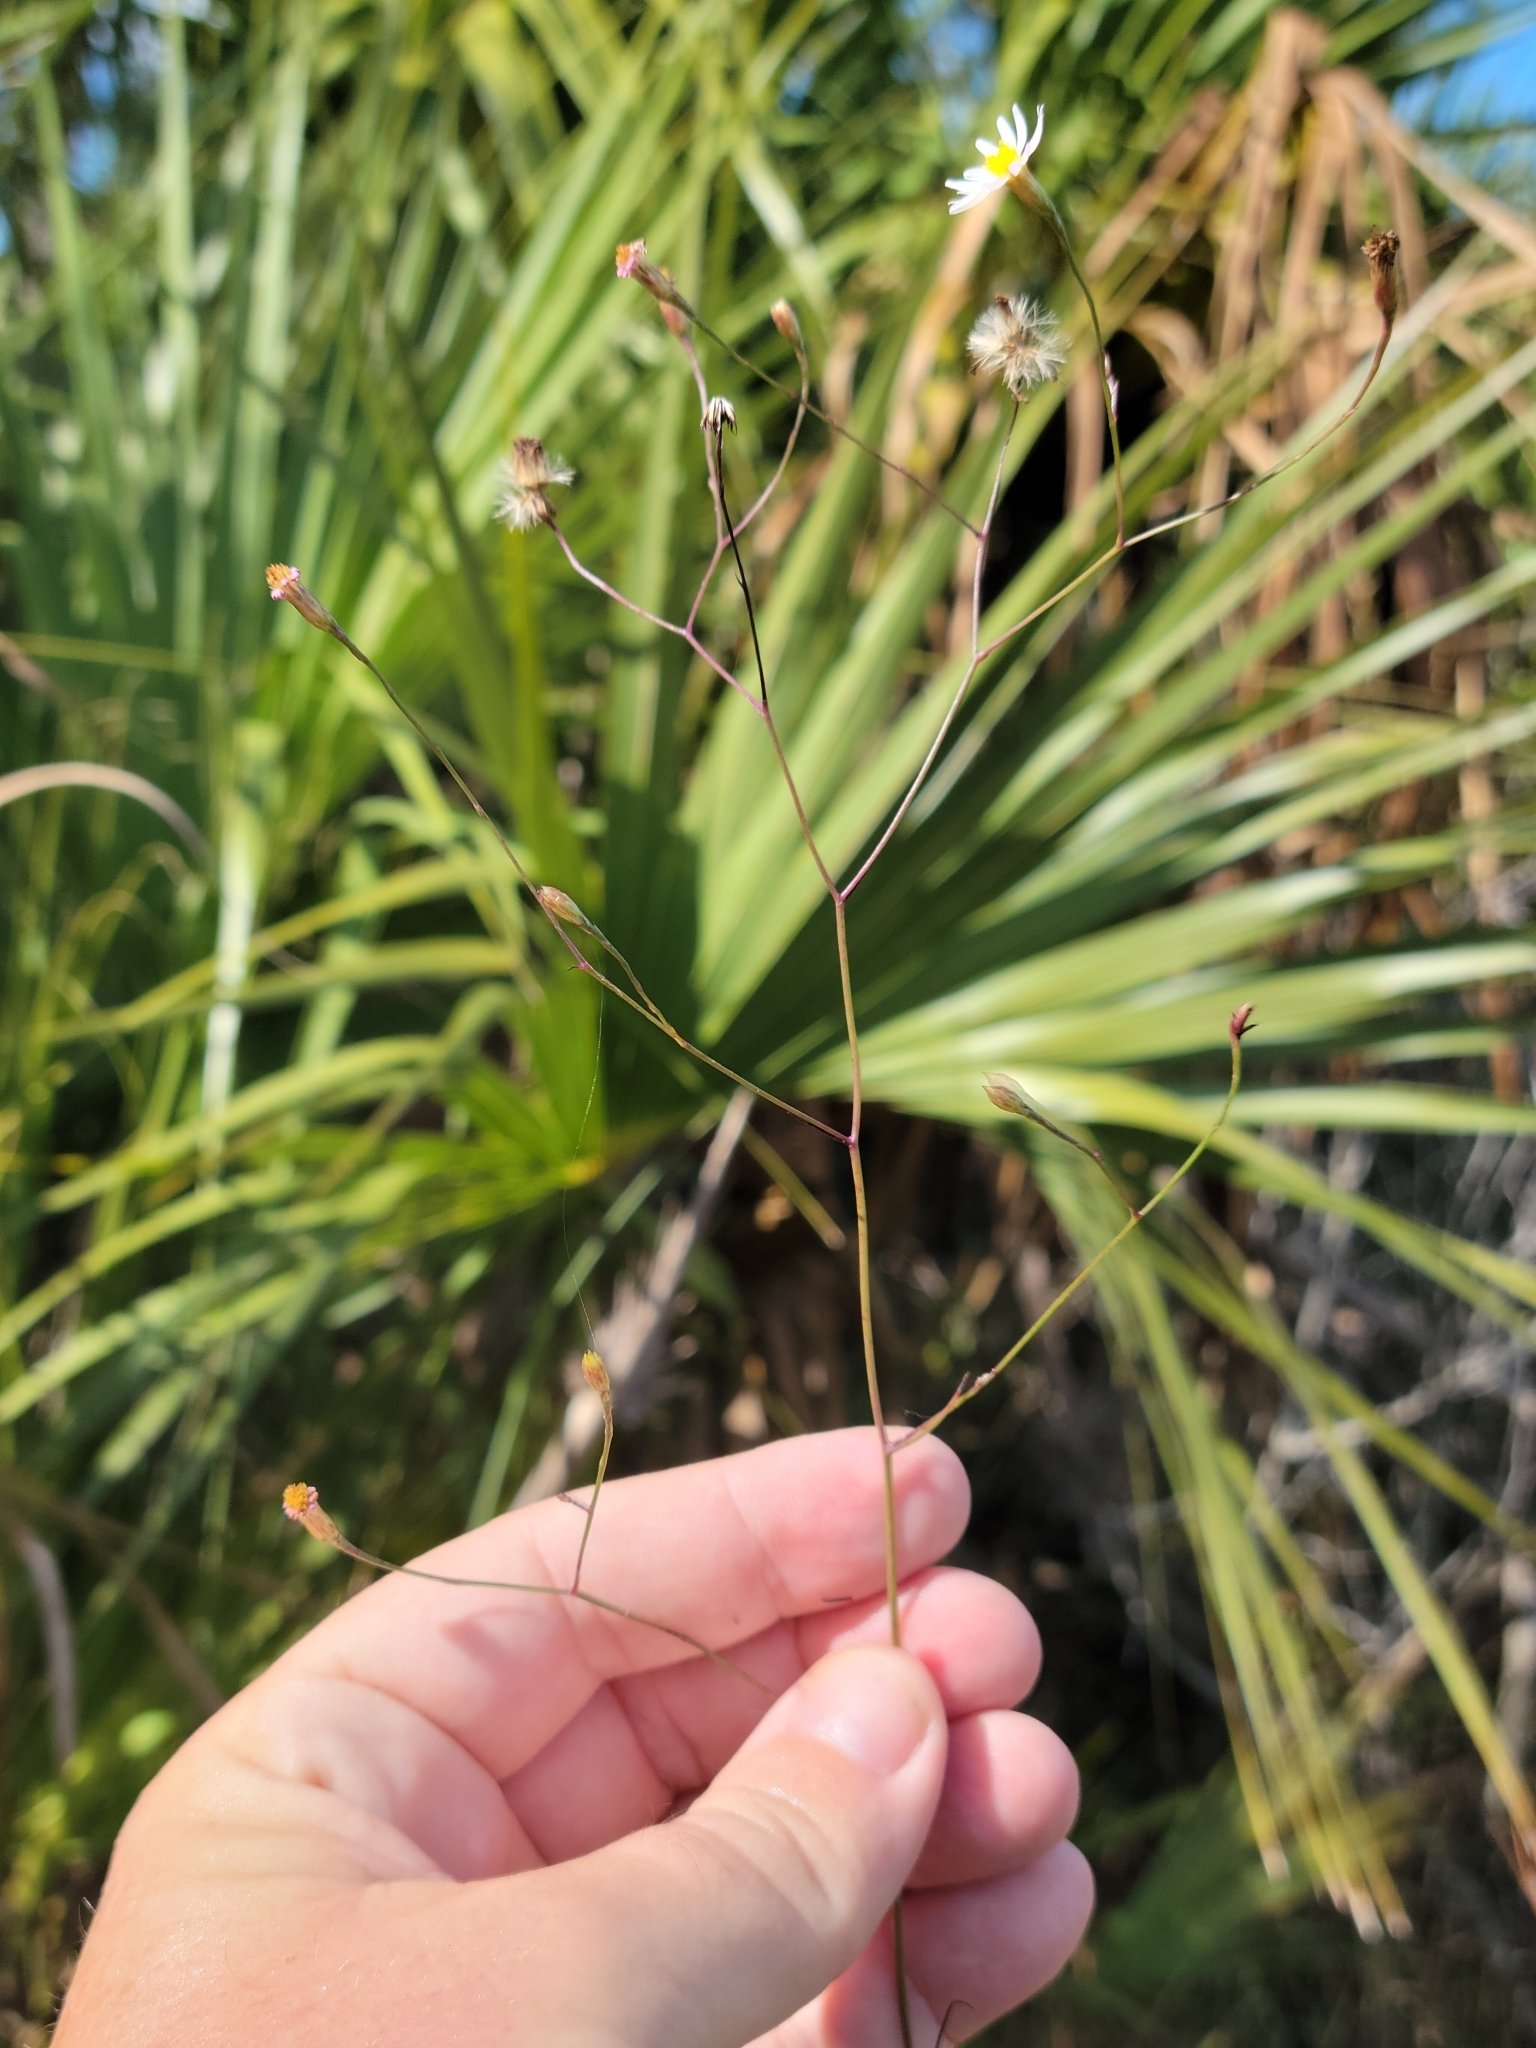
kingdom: Plantae
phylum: Tracheophyta
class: Magnoliopsida
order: Asterales
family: Asteraceae
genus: Symphyotrichum
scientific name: Symphyotrichum tenuifolium
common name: Perennial salt-marsh aster
